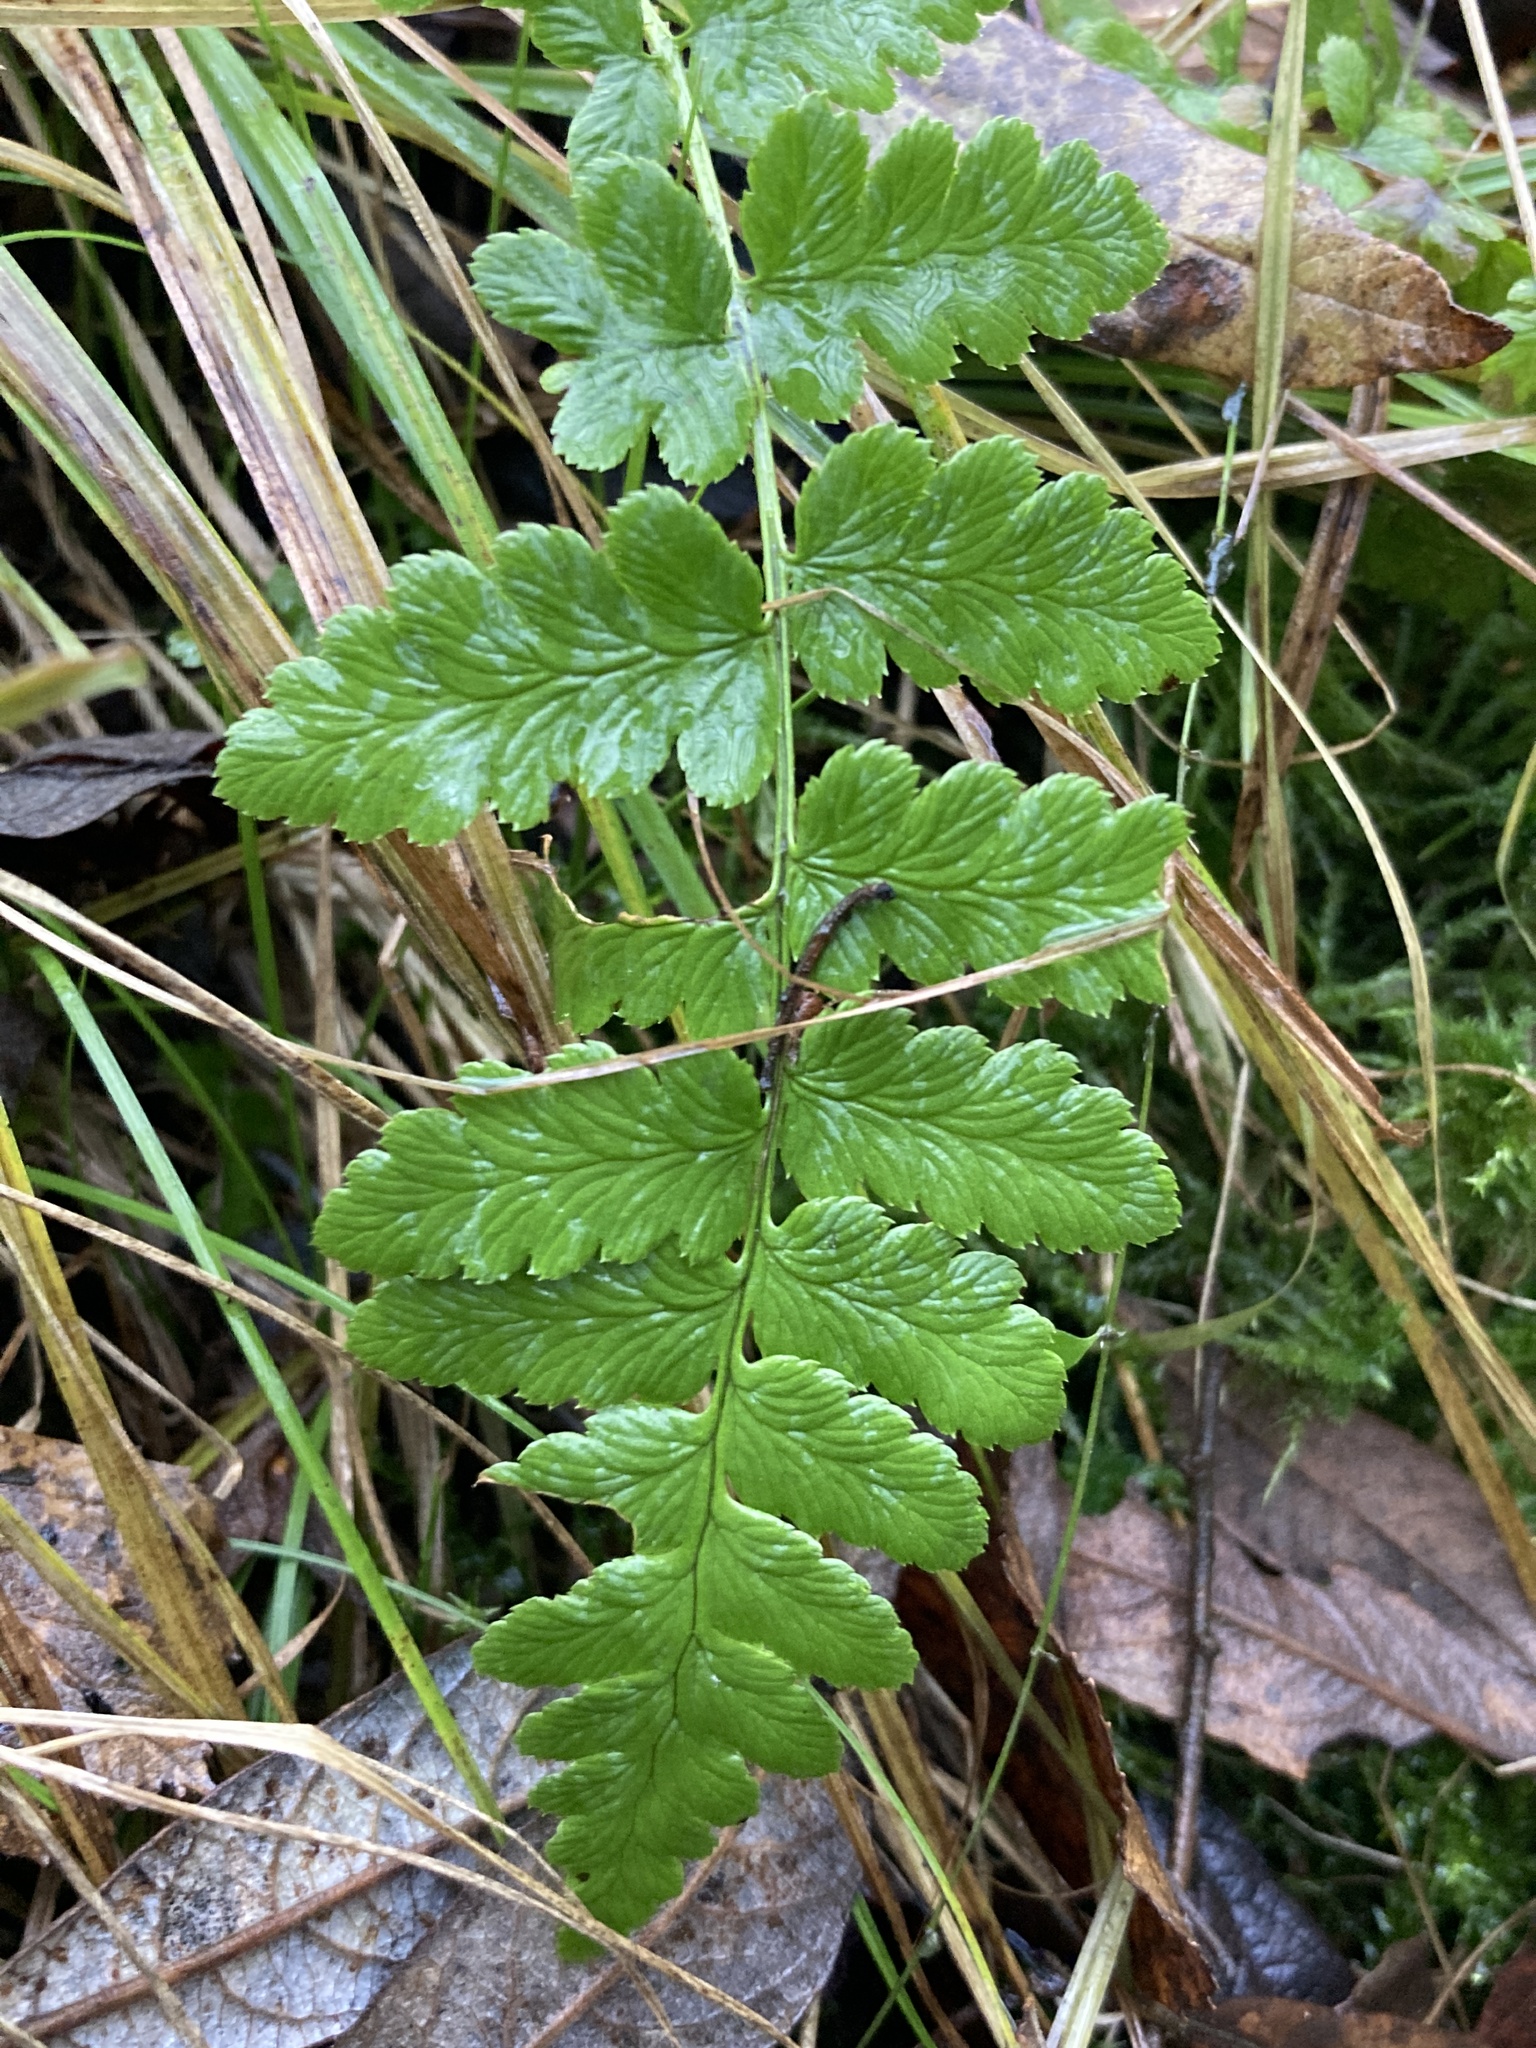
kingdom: Plantae
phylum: Tracheophyta
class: Polypodiopsida
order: Polypodiales
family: Dryopteridaceae
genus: Dryopteris
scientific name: Dryopteris cristata
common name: Crested wood fern
